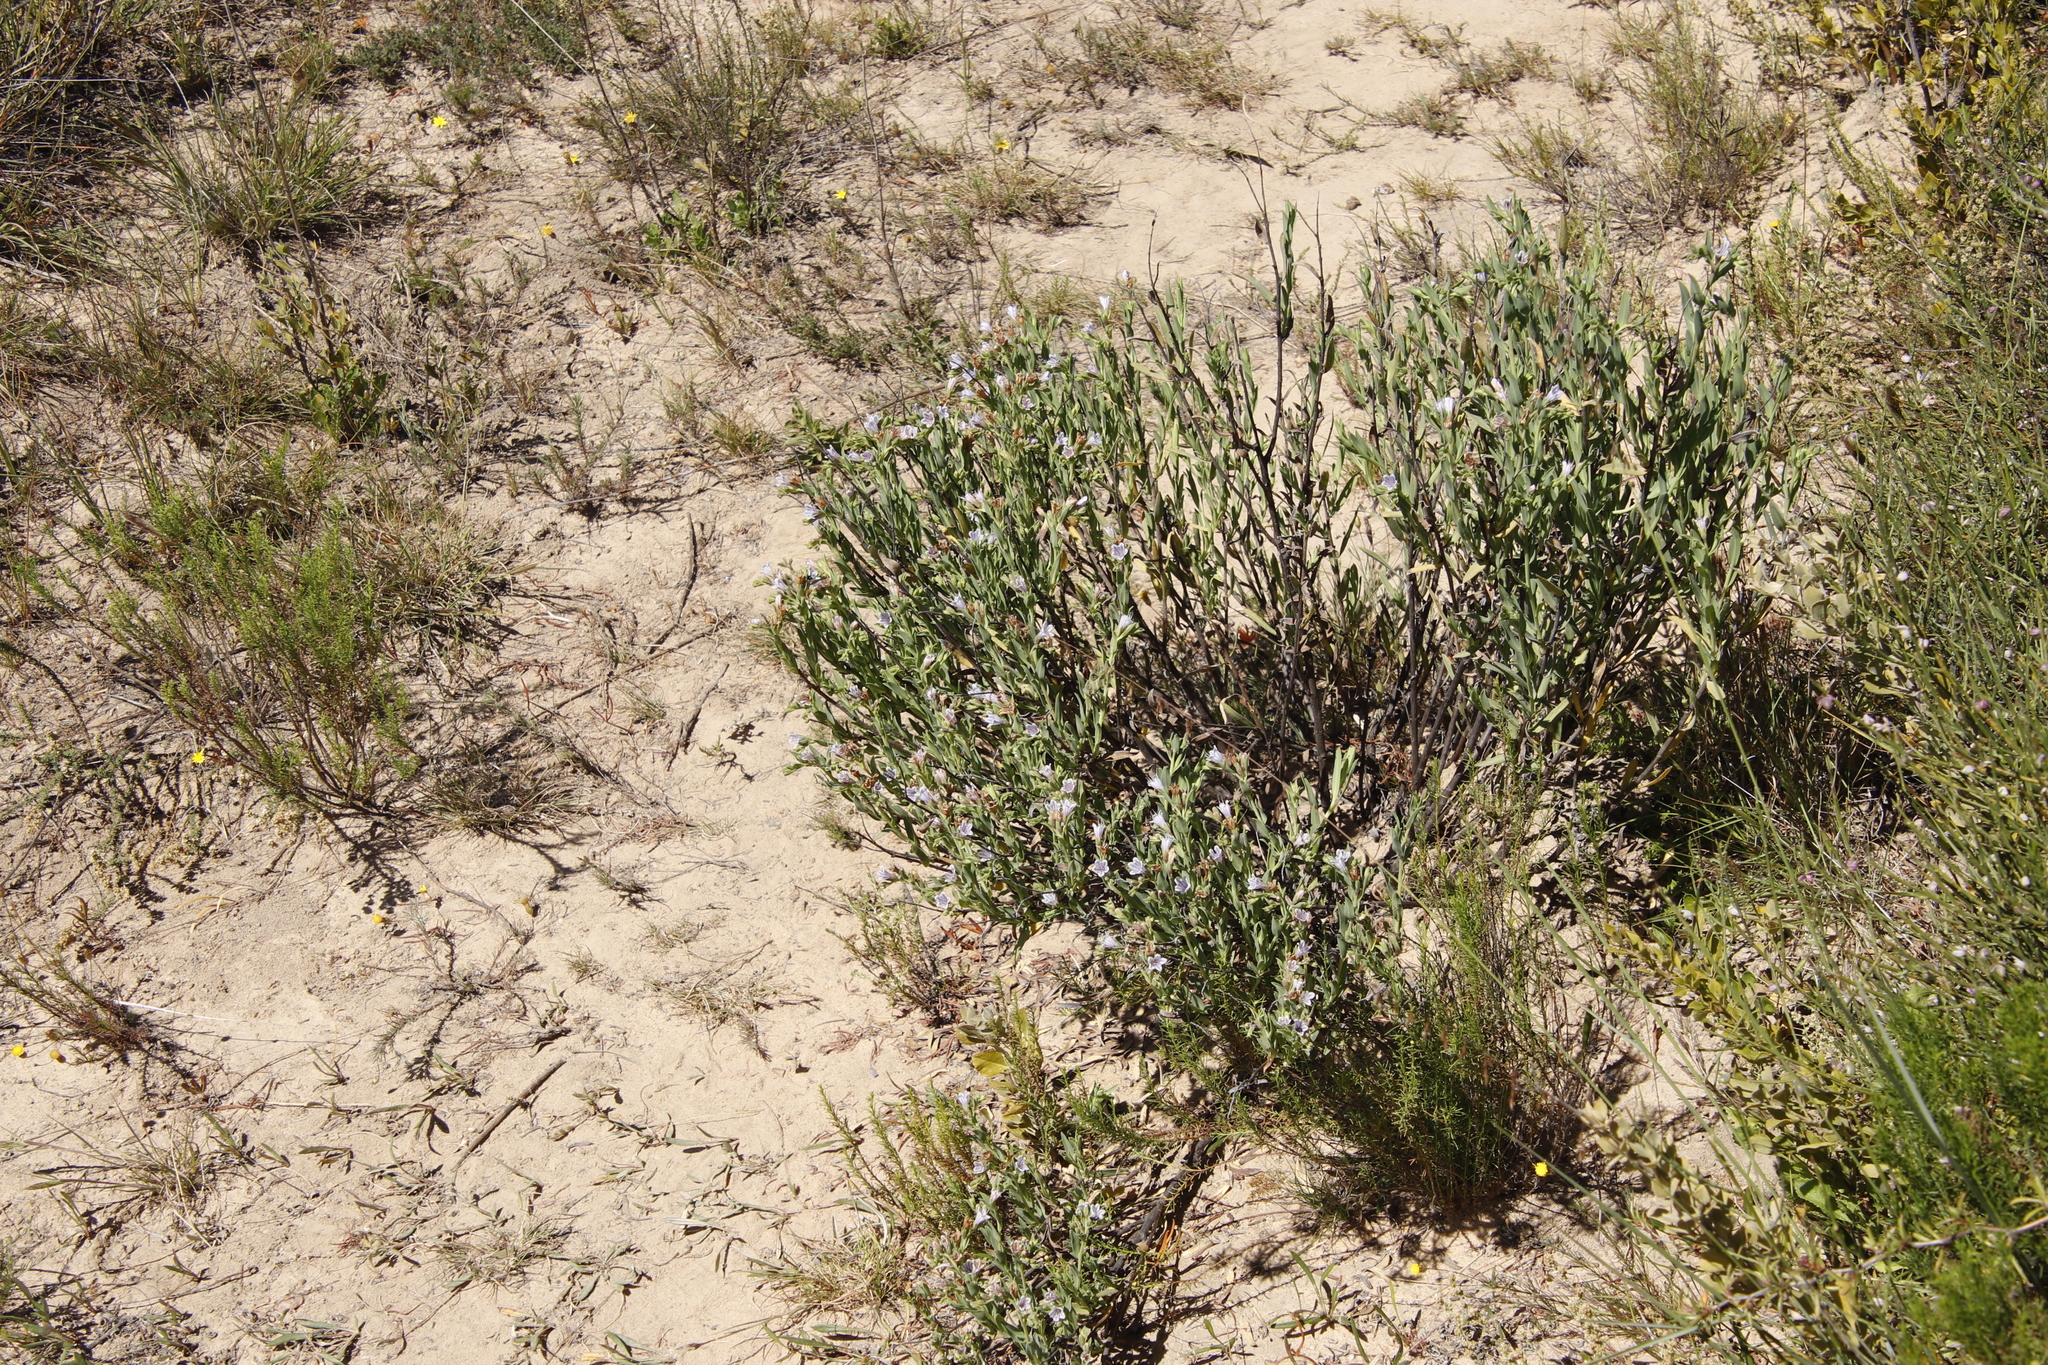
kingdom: Plantae
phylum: Tracheophyta
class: Magnoliopsida
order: Boraginales
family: Boraginaceae
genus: Lobostemon
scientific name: Lobostemon glaucophyllus
